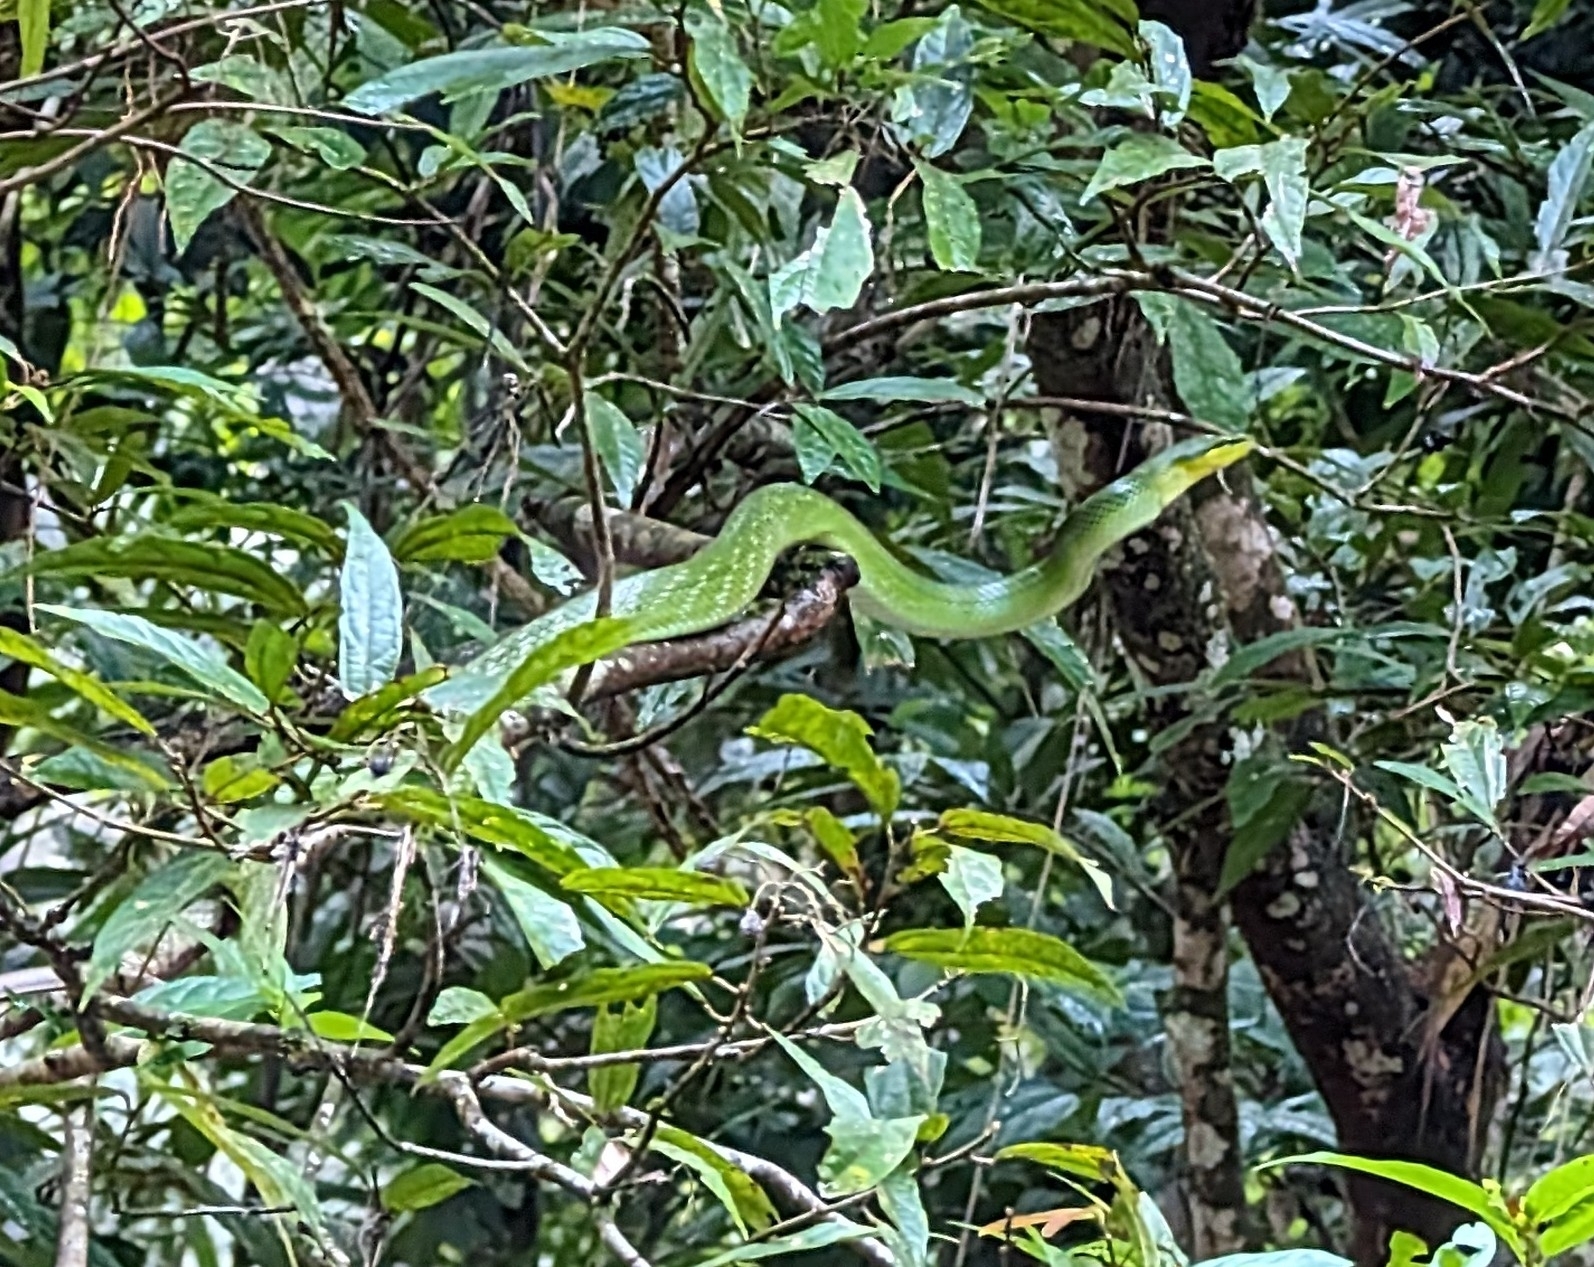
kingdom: Animalia
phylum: Chordata
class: Squamata
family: Colubridae
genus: Gonyosoma
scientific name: Gonyosoma oxycephalum
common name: Red-tailed racer
